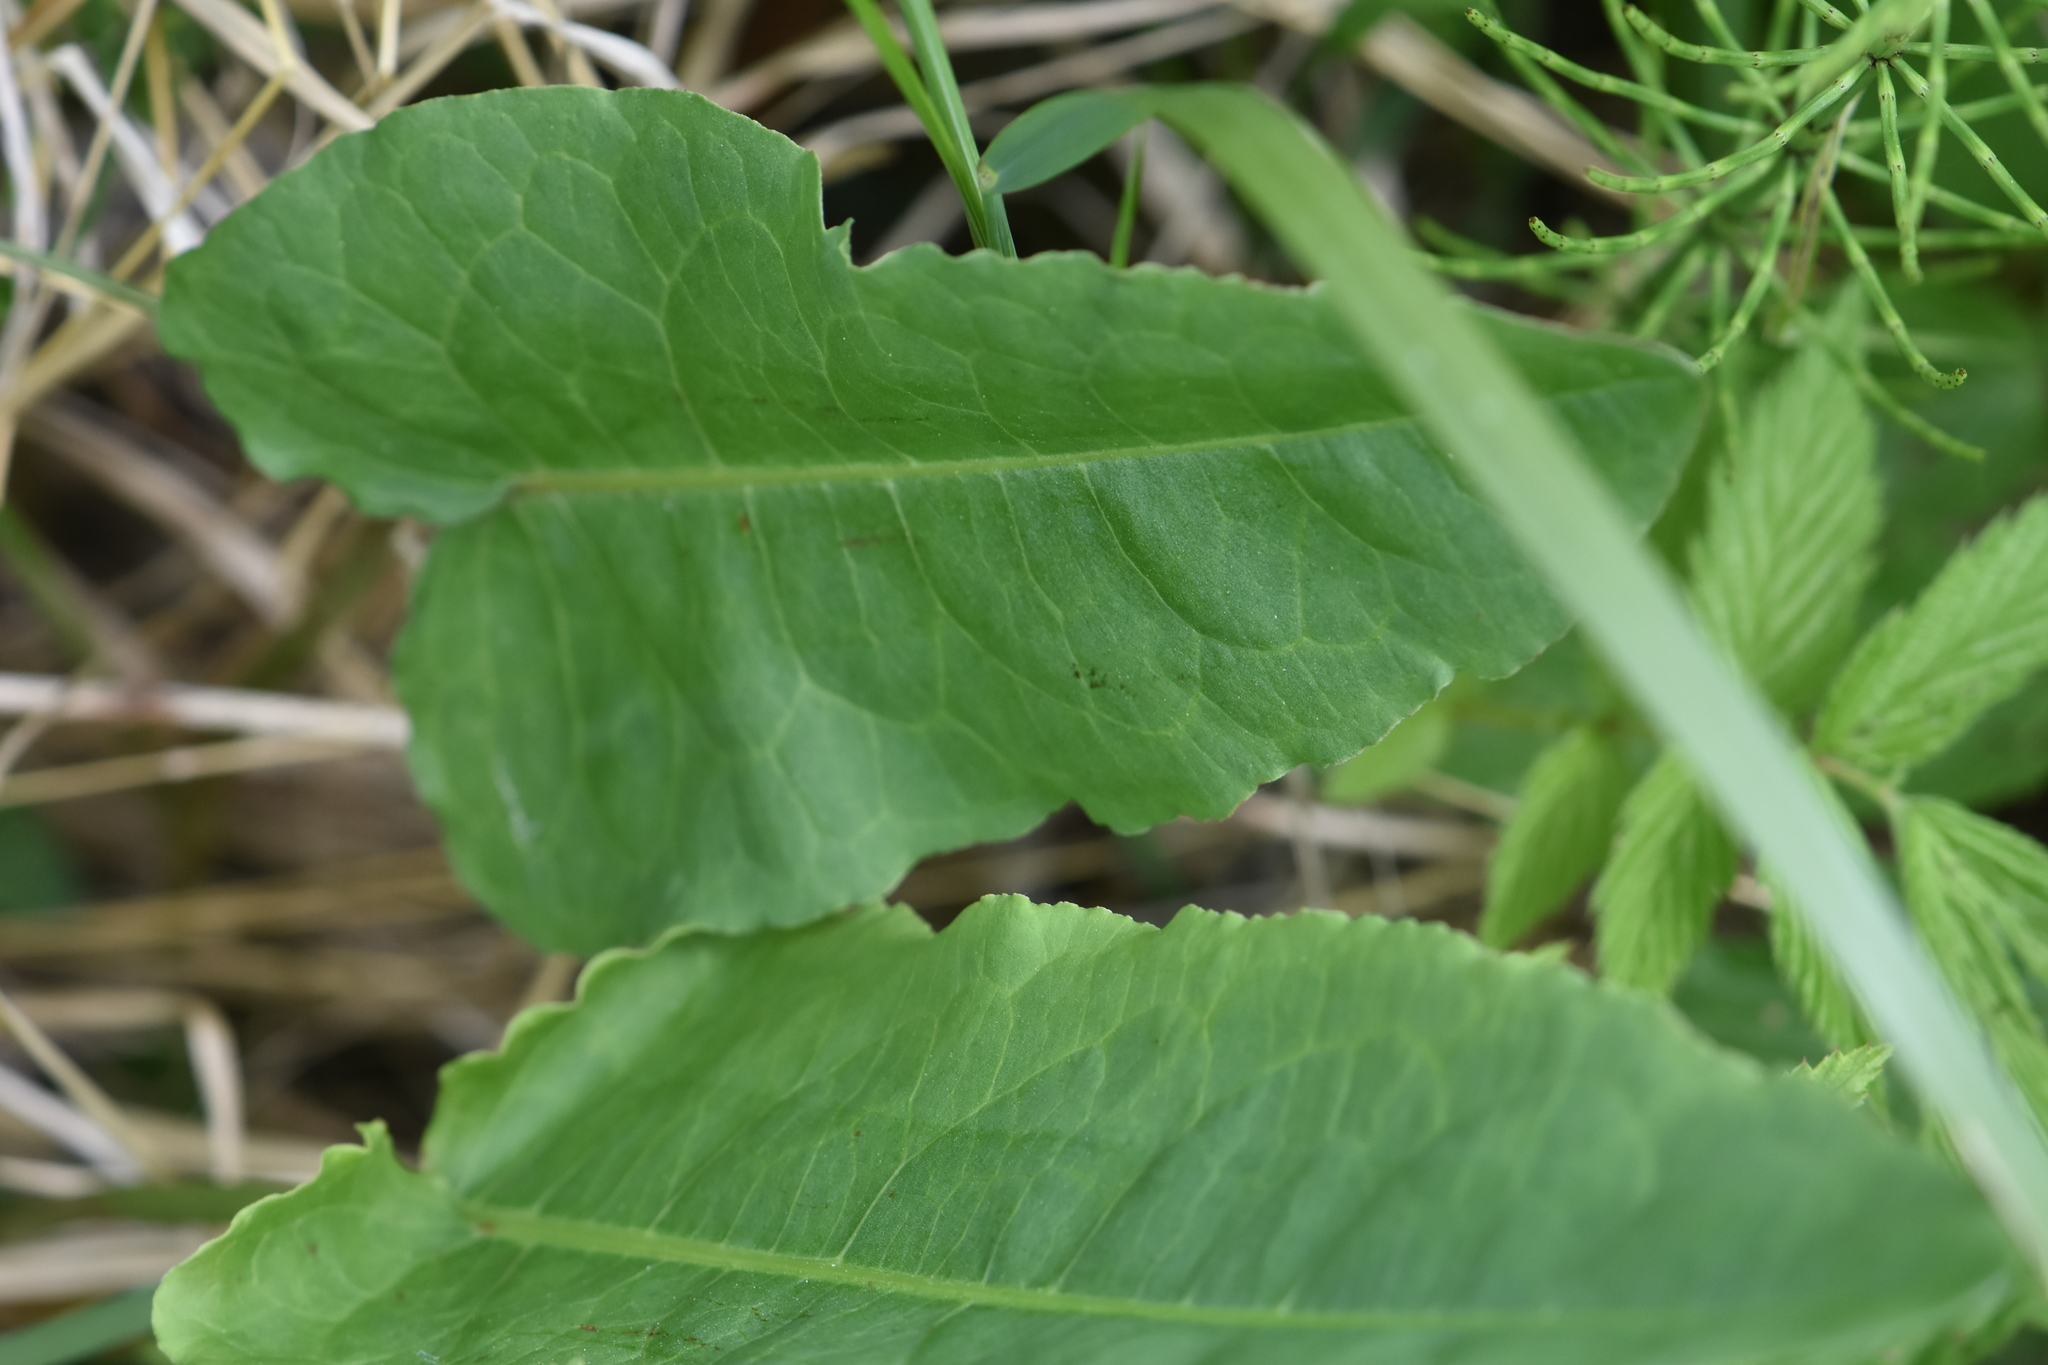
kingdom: Plantae
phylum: Tracheophyta
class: Magnoliopsida
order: Caryophyllales
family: Polygonaceae
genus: Rumex
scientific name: Rumex confertus
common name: Russian dock
